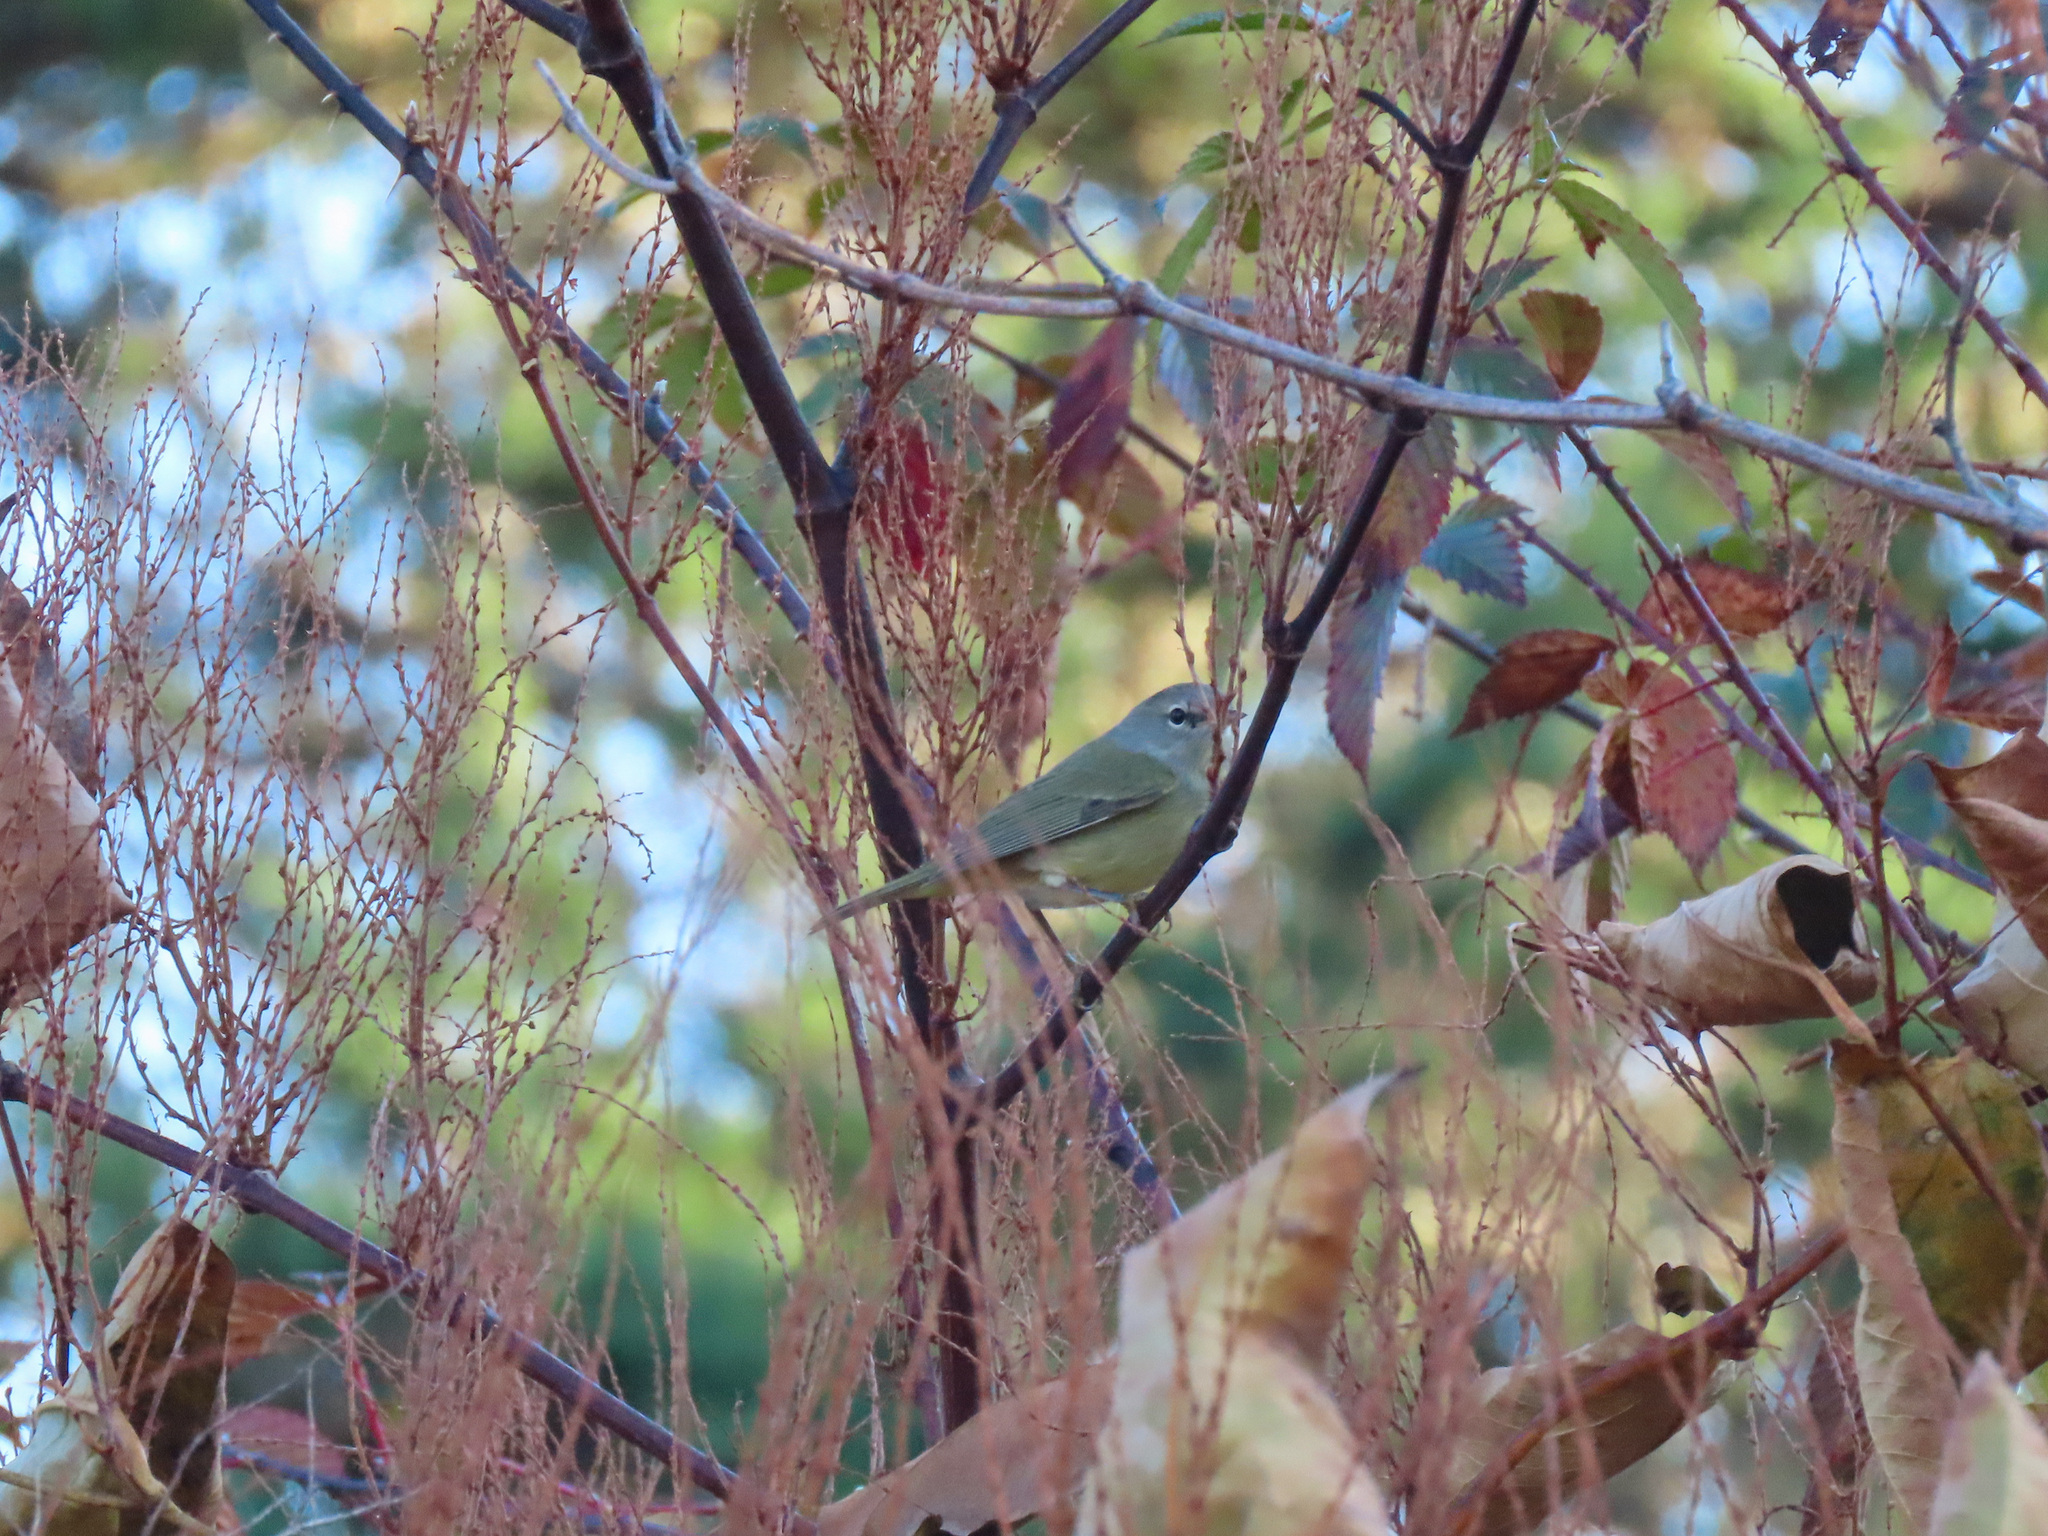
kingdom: Animalia
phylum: Chordata
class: Aves
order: Passeriformes
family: Parulidae
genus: Leiothlypis
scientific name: Leiothlypis celata
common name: Orange-crowned warbler
